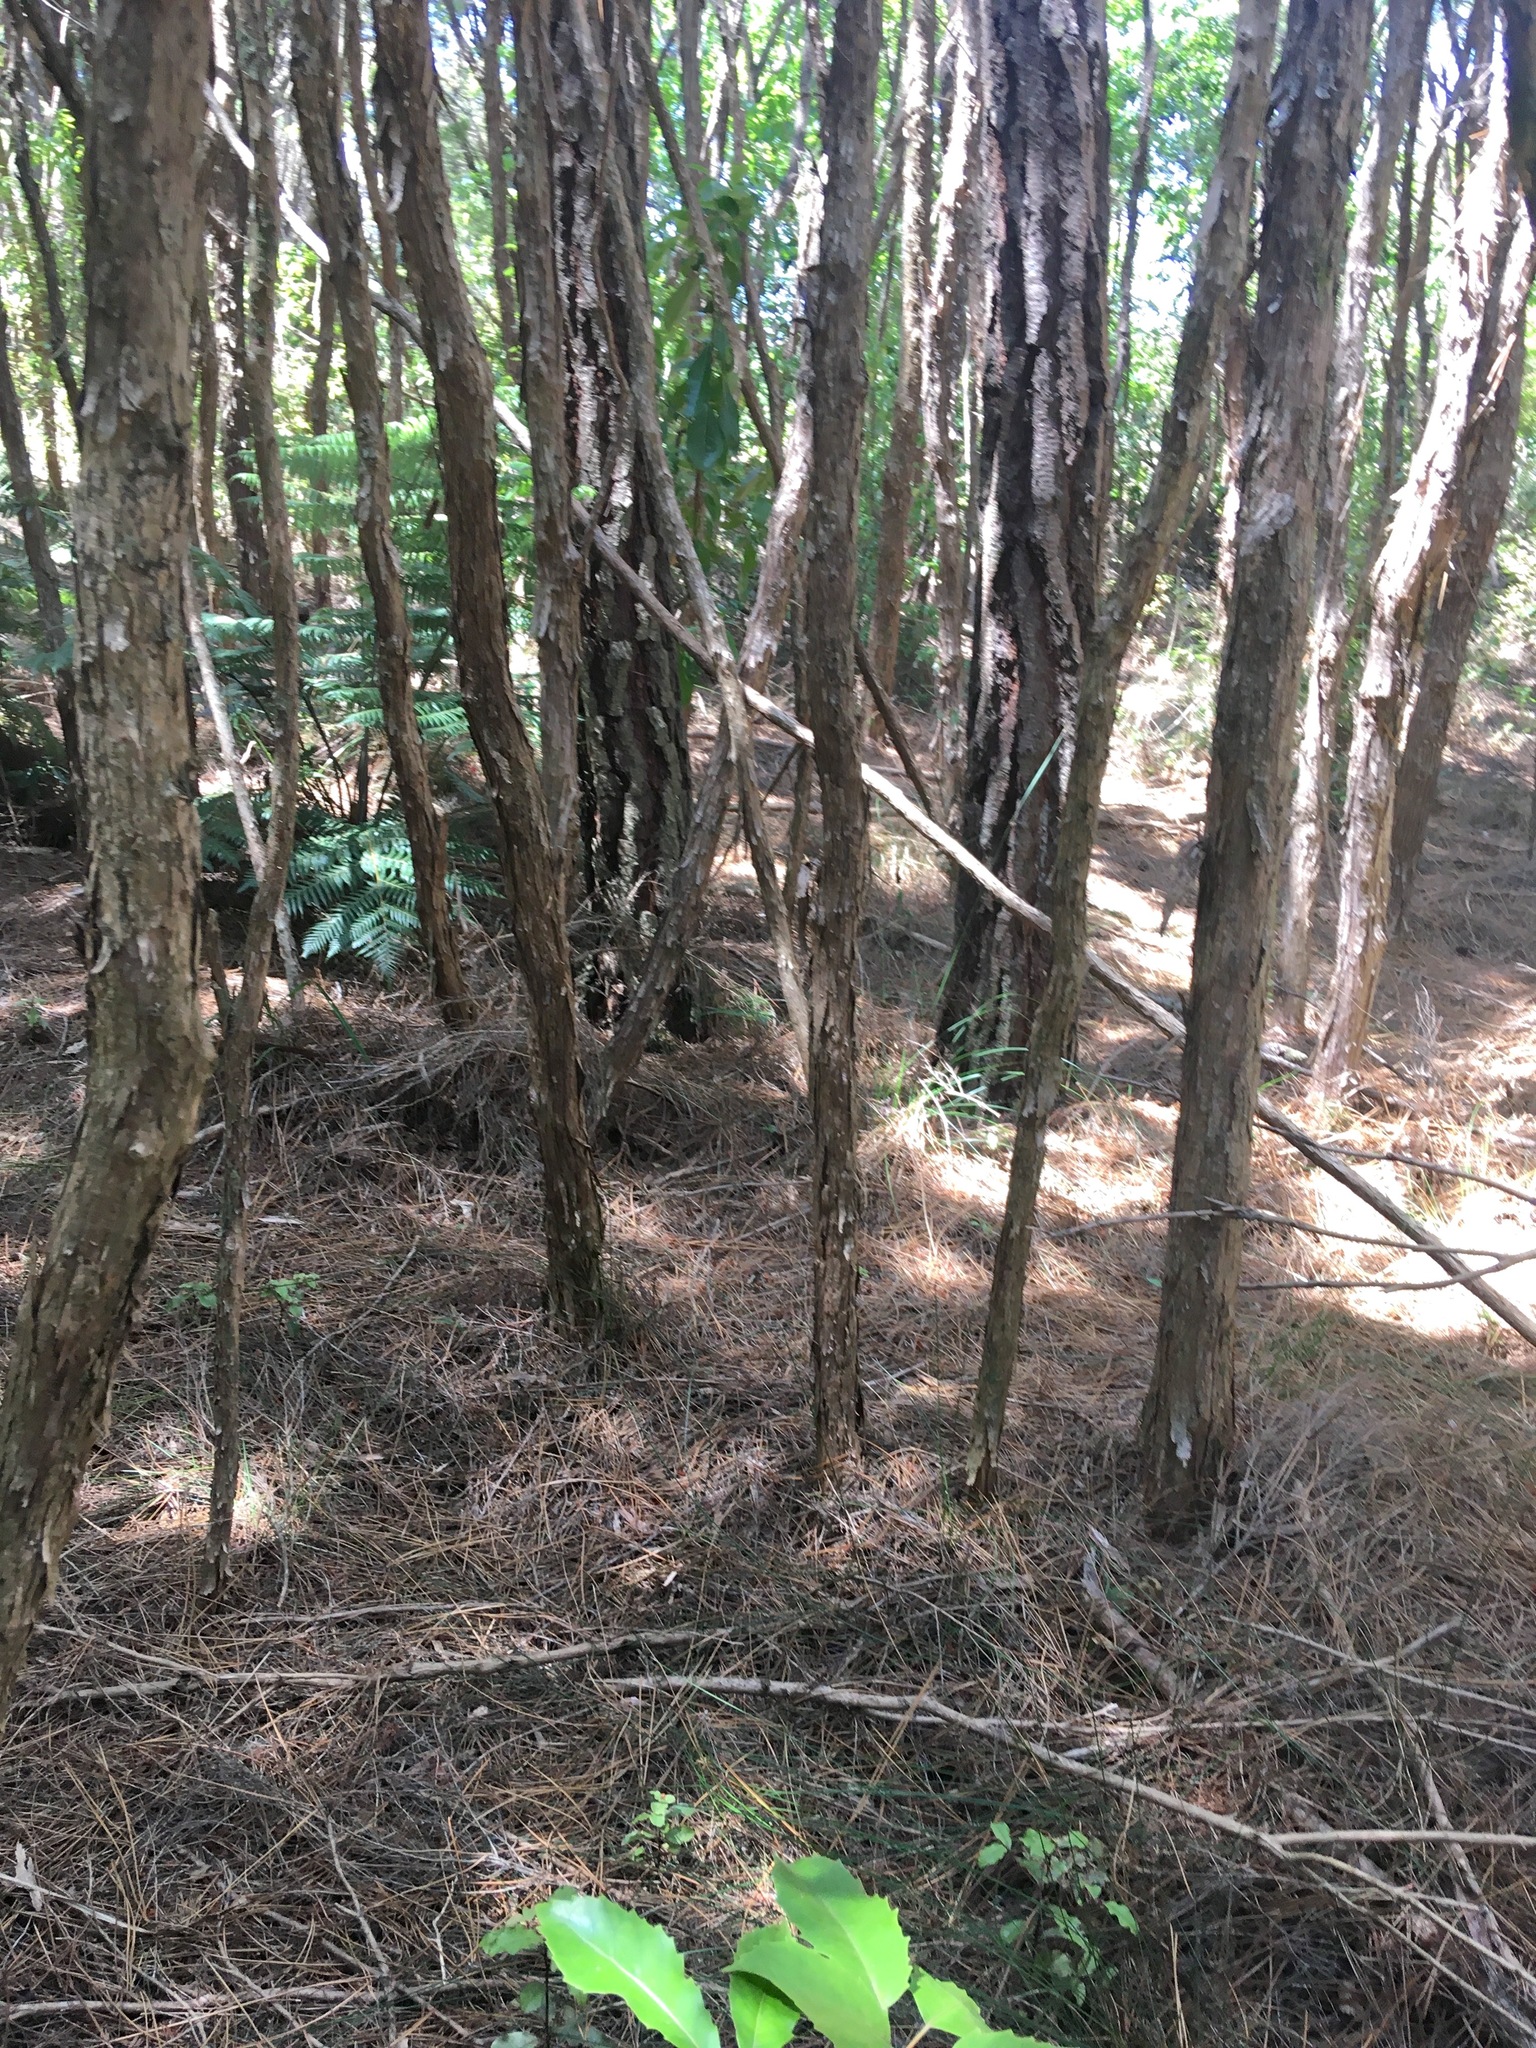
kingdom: Plantae
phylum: Tracheophyta
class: Polypodiopsida
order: Cyatheales
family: Cyatheaceae
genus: Alsophila
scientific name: Alsophila dealbata
